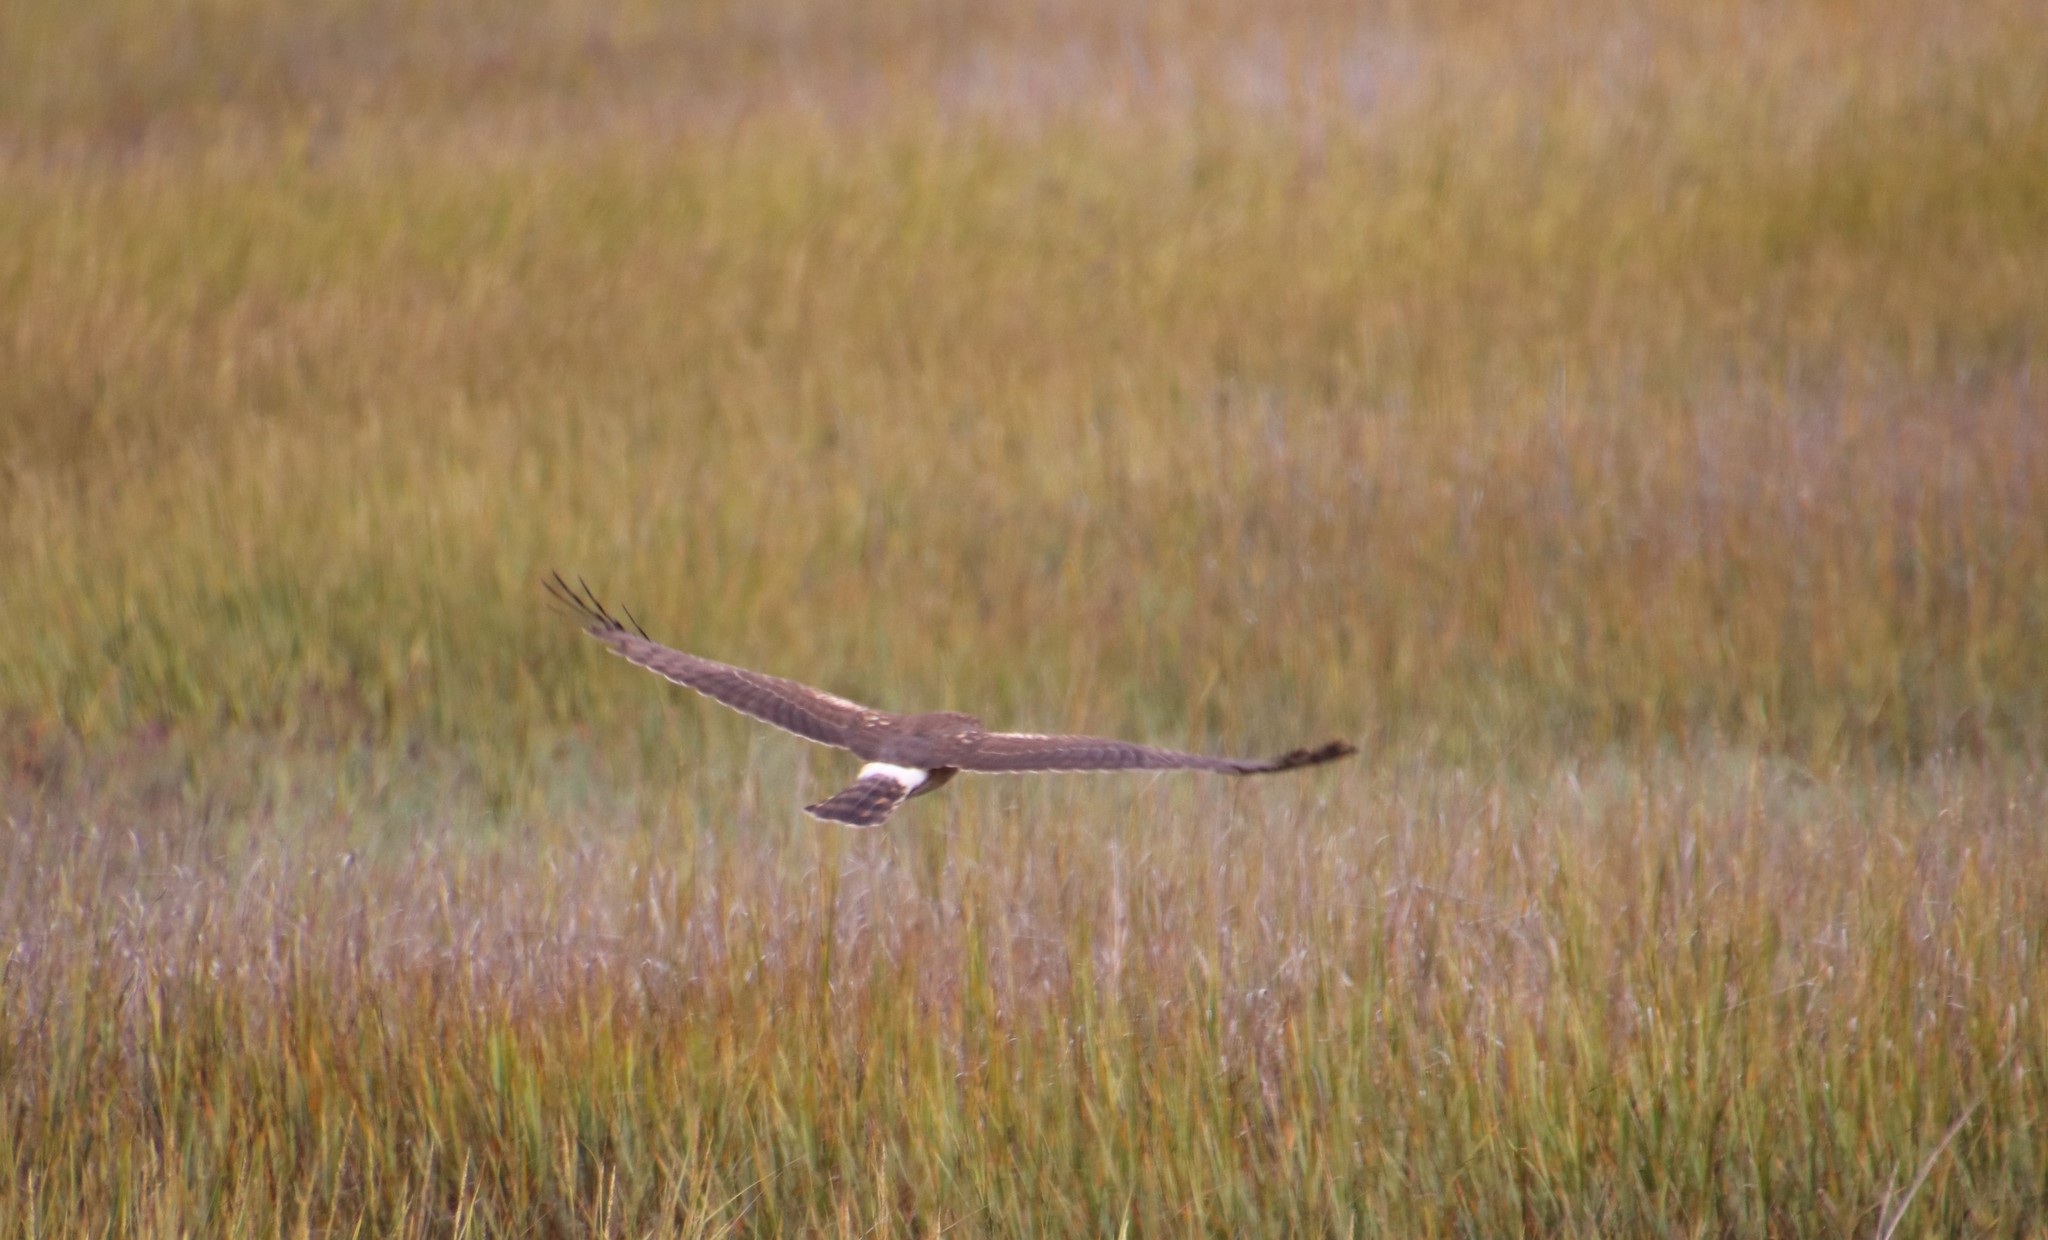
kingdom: Animalia
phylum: Chordata
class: Aves
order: Accipitriformes
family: Accipitridae
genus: Circus
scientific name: Circus cyaneus
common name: Hen harrier
